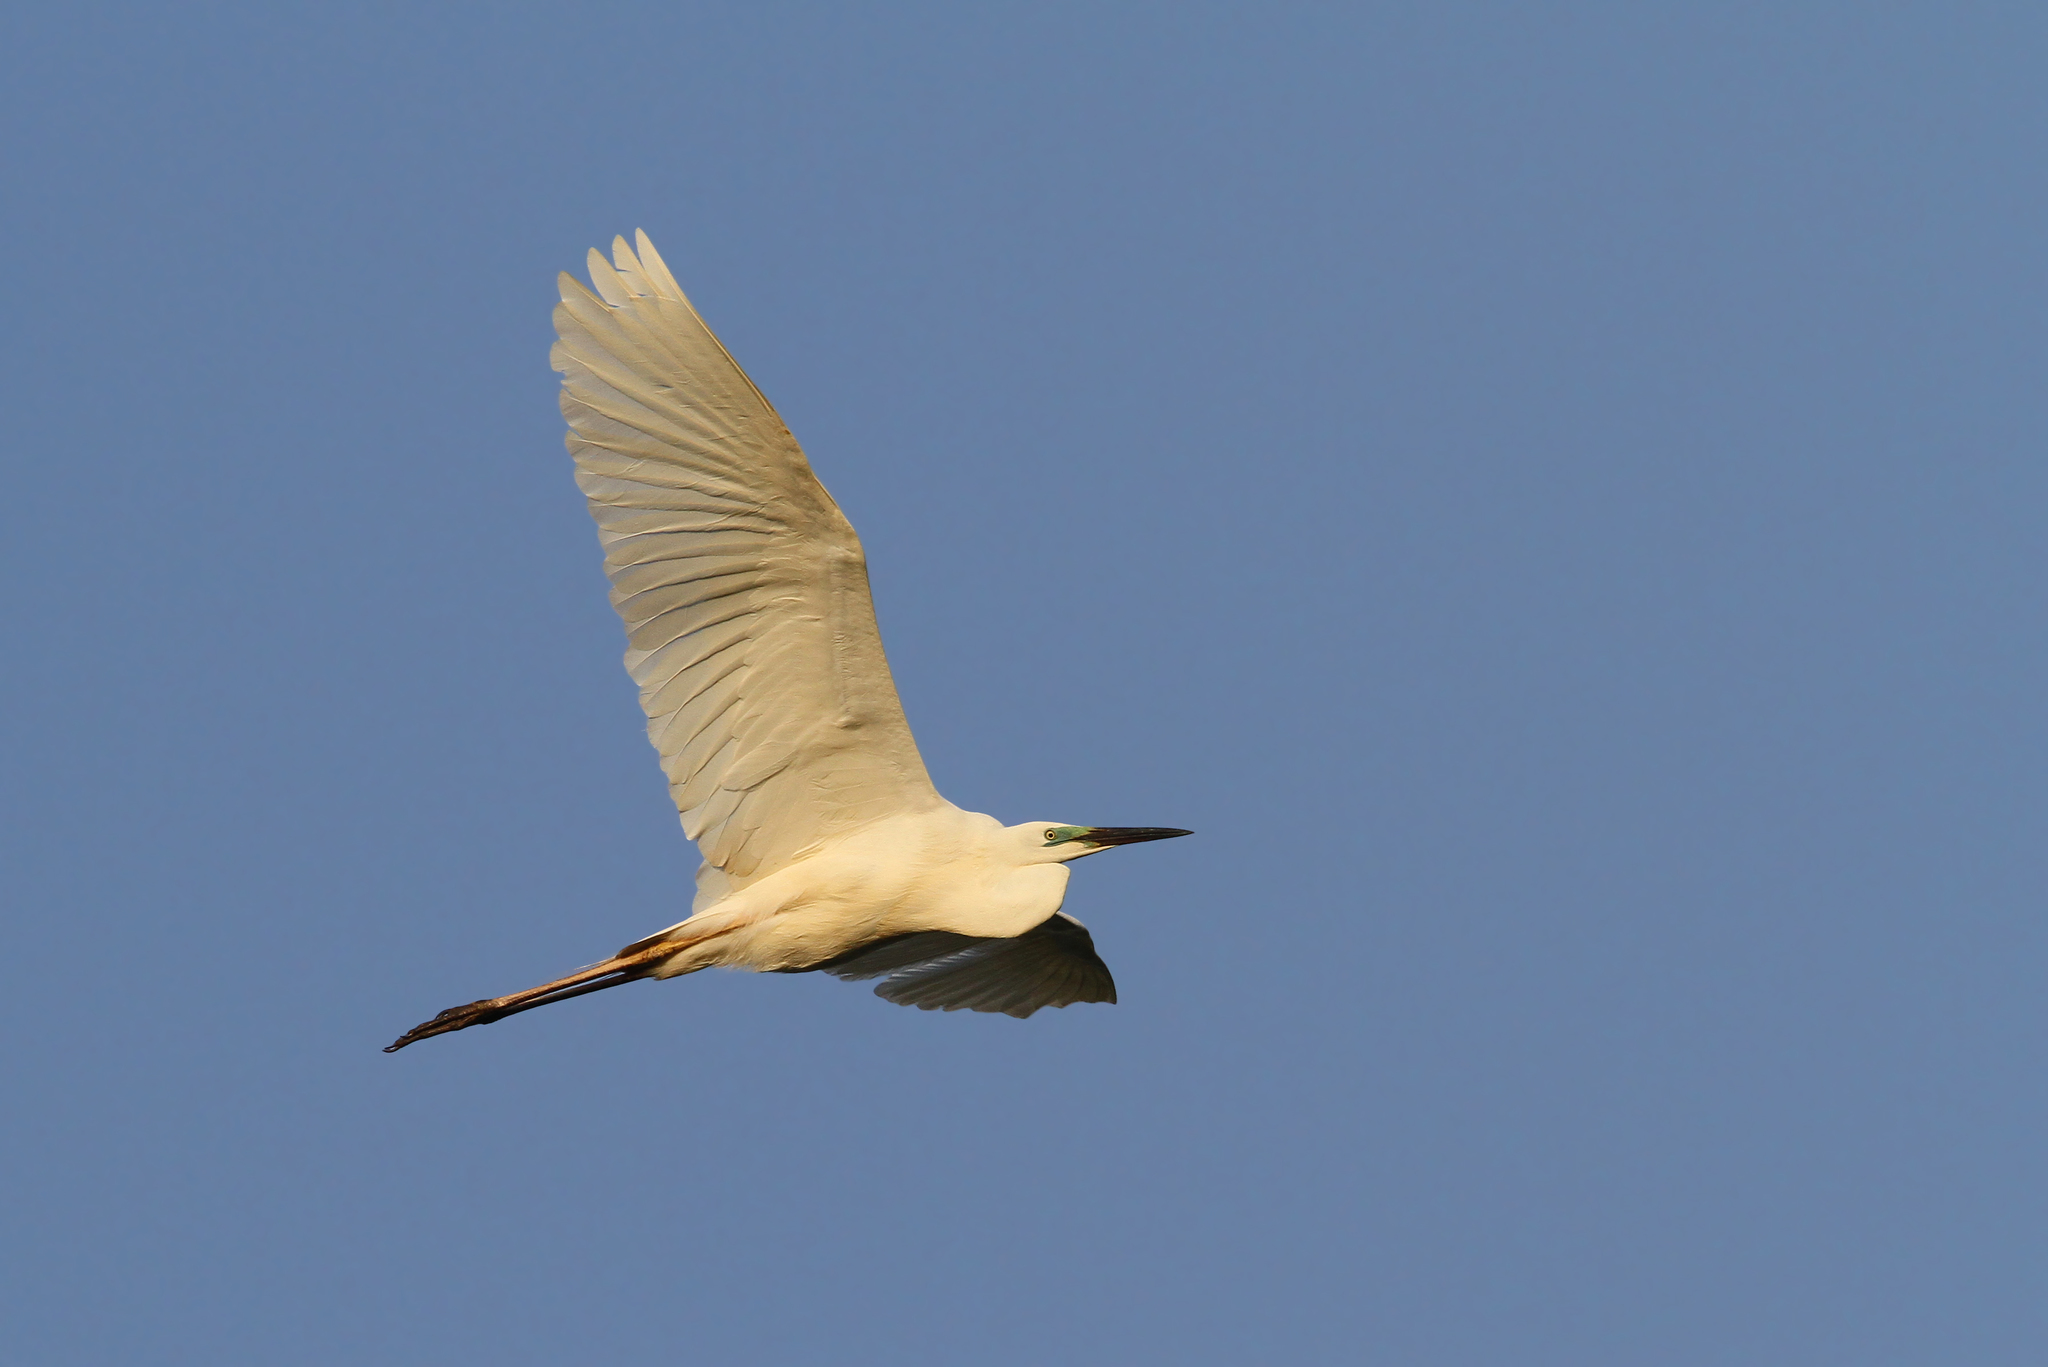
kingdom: Animalia
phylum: Chordata
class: Aves
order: Pelecaniformes
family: Ardeidae
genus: Ardea
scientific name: Ardea alba
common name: Great egret
